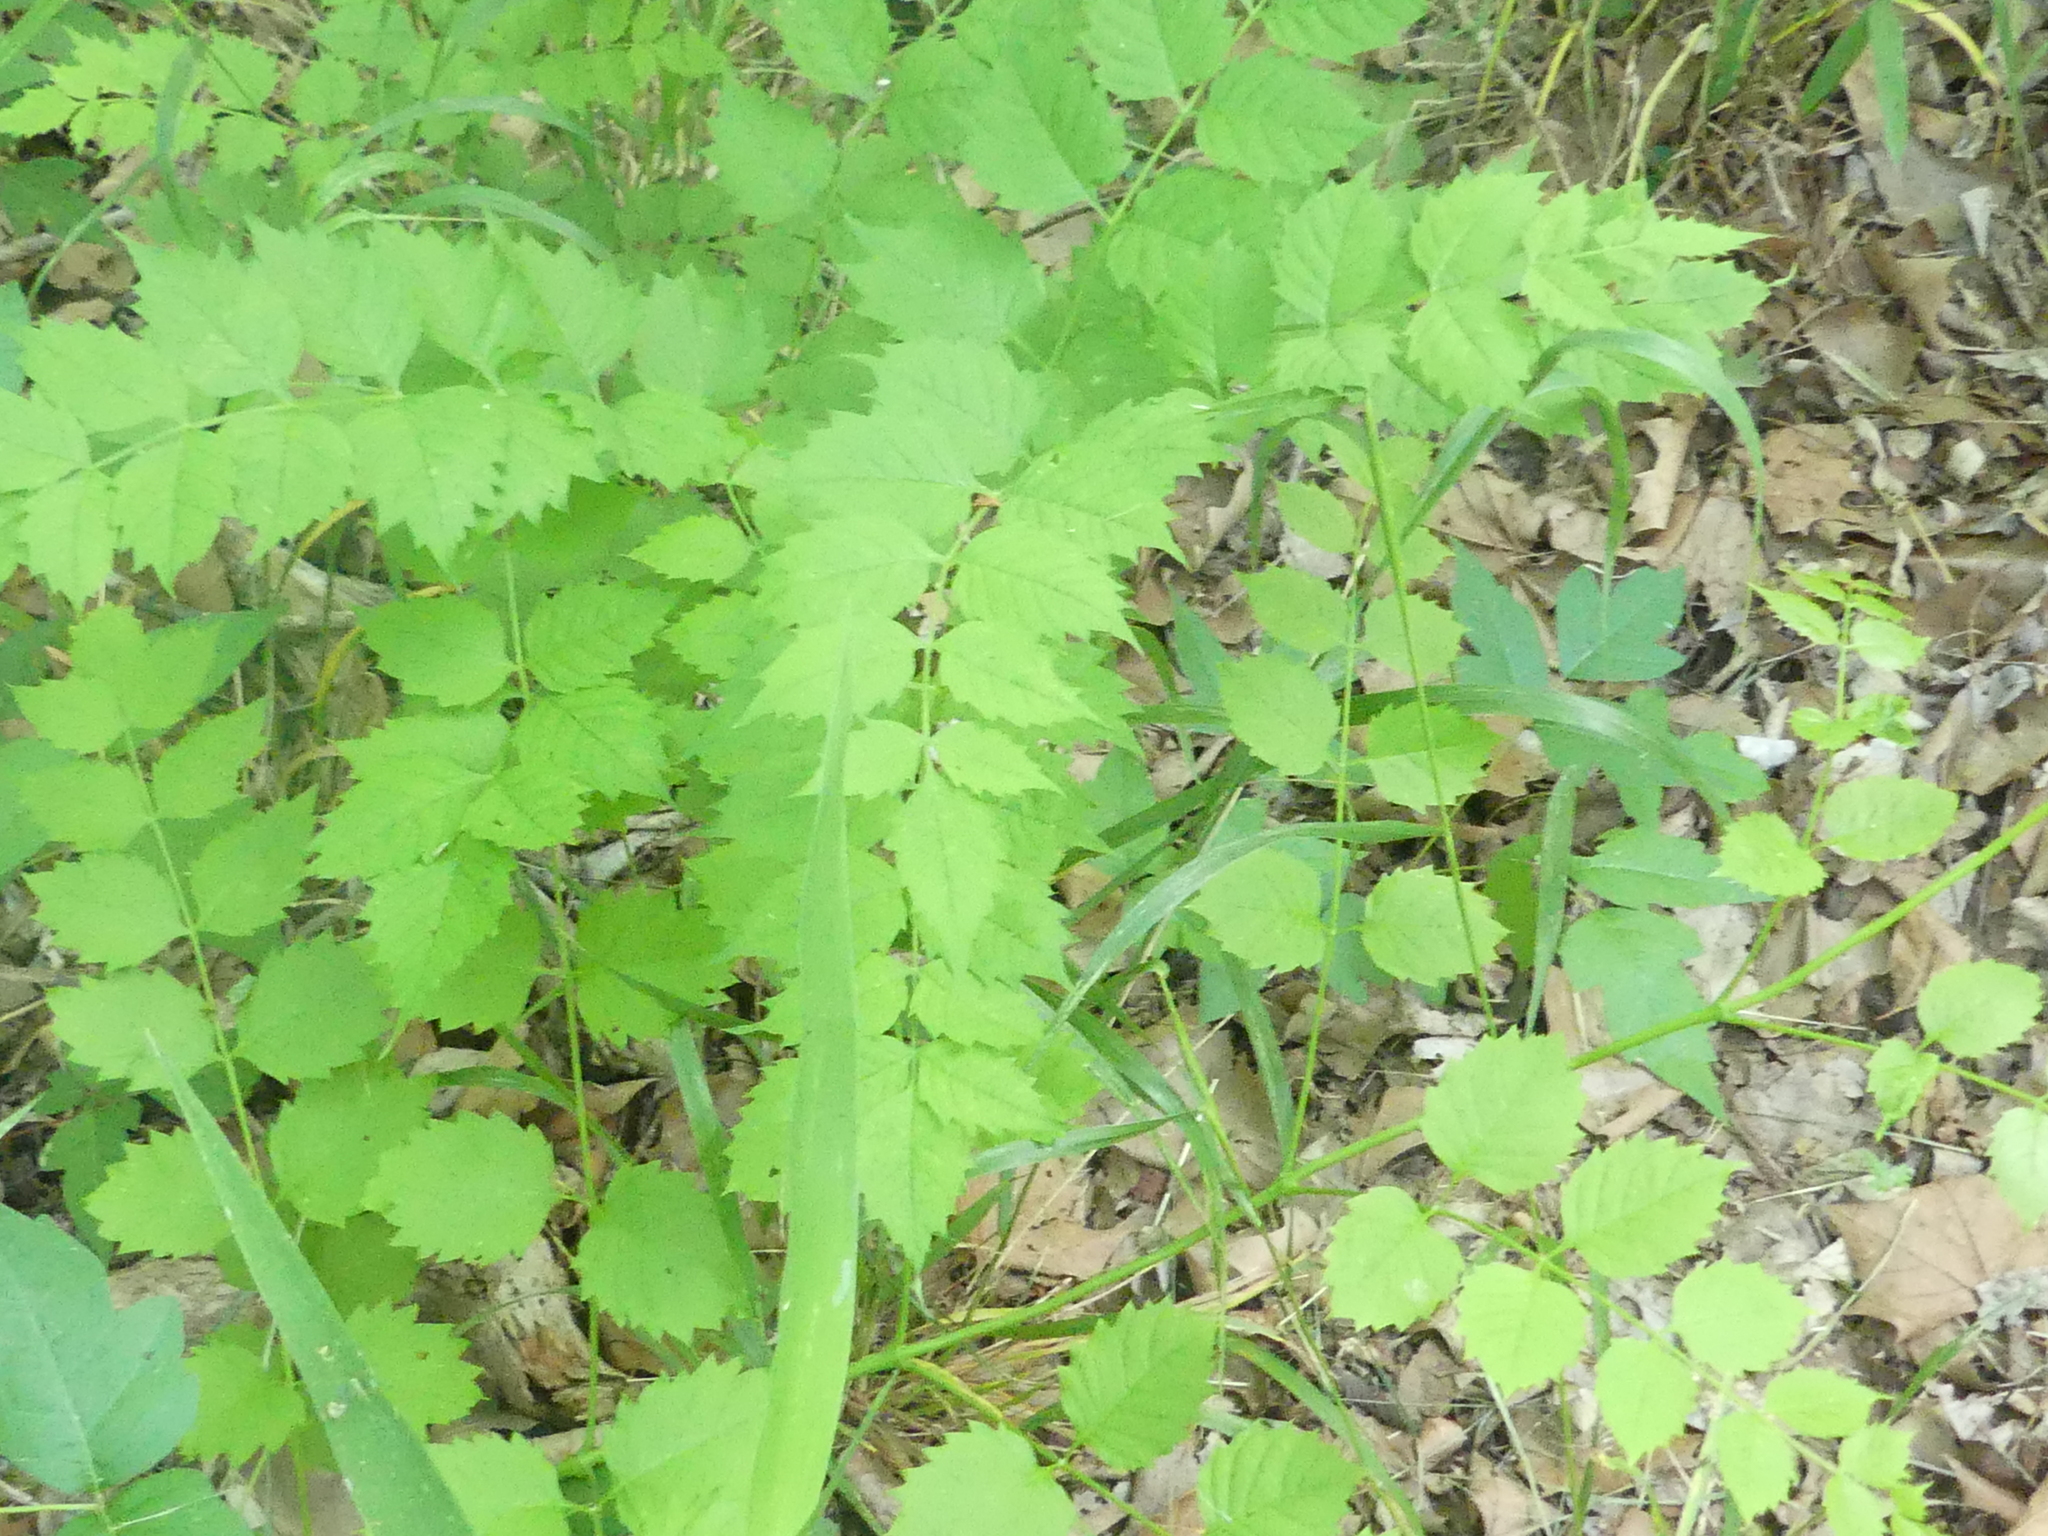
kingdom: Plantae
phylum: Tracheophyta
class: Magnoliopsida
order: Lamiales
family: Bignoniaceae
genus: Campsis
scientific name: Campsis radicans
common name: Trumpet-creeper
